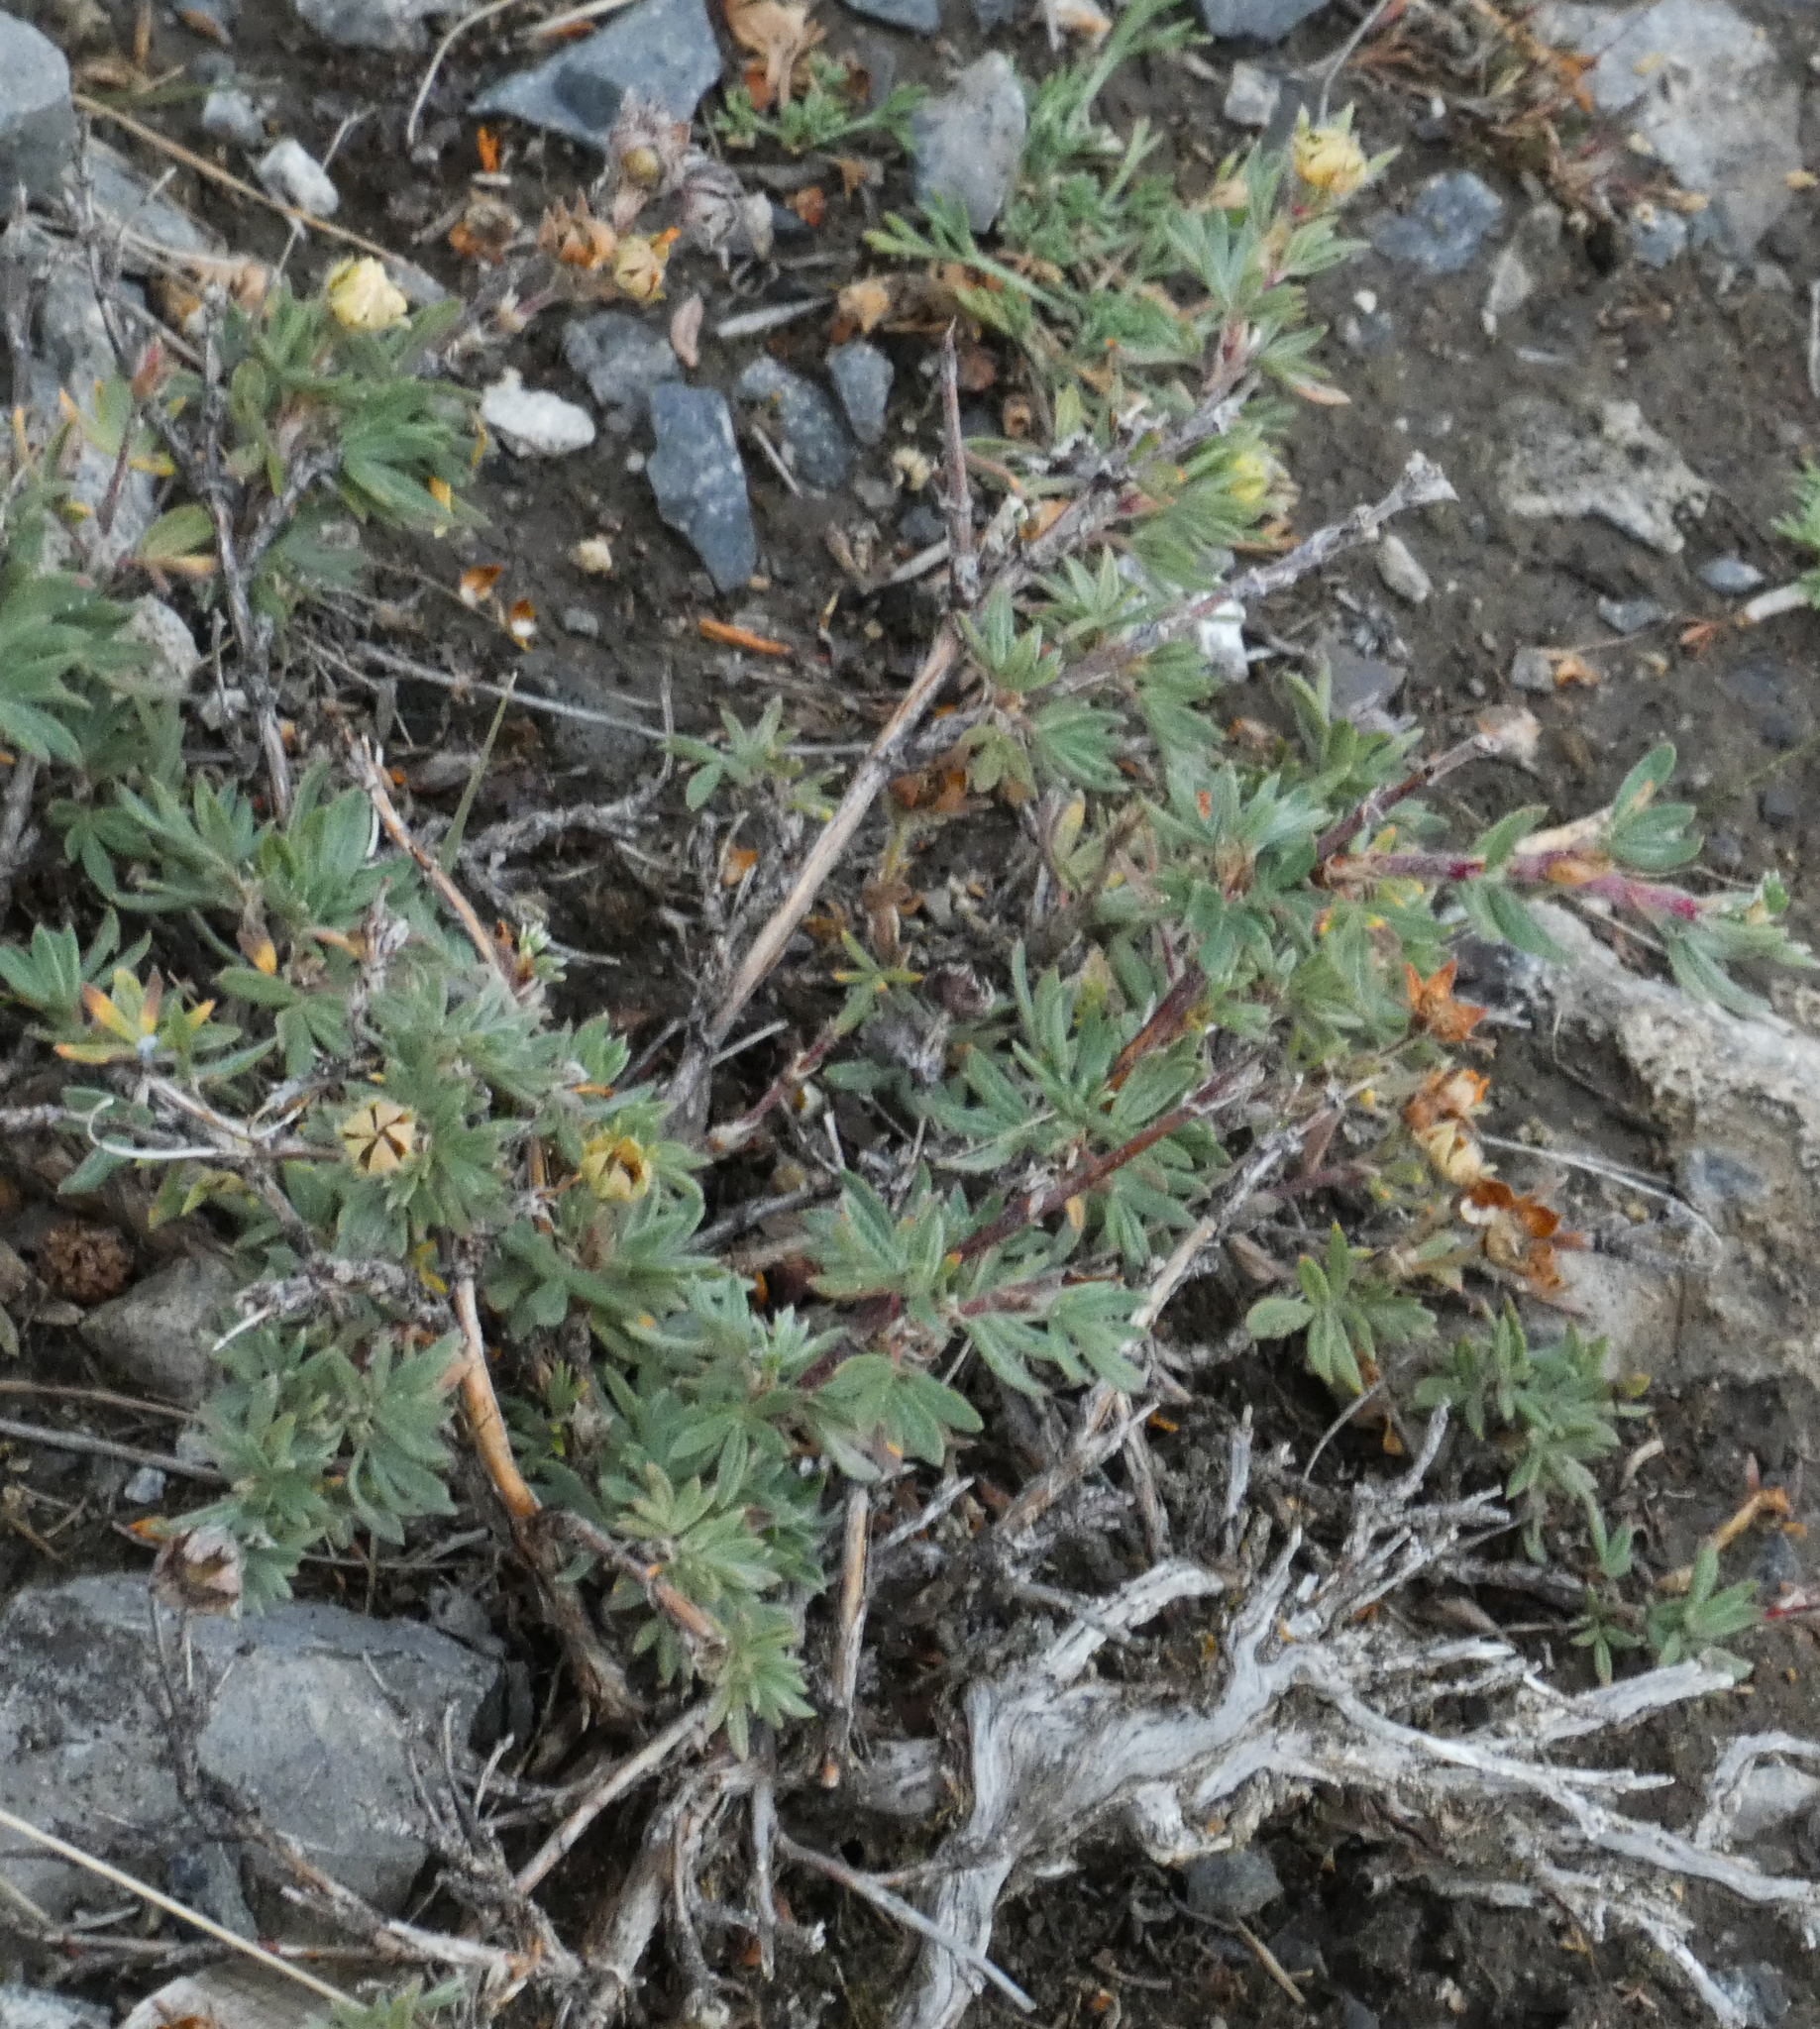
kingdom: Plantae
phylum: Tracheophyta
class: Magnoliopsida
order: Rosales
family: Rosaceae
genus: Dasiphora
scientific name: Dasiphora fruticosa
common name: Shrubby cinquefoil
